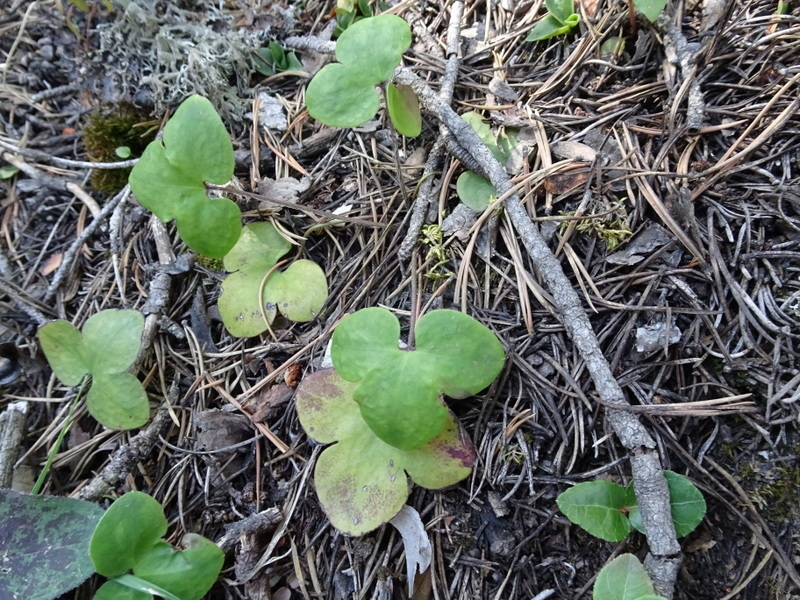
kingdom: Plantae
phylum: Tracheophyta
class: Magnoliopsida
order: Ranunculales
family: Ranunculaceae
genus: Hepatica
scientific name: Hepatica nobilis
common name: Liverleaf
